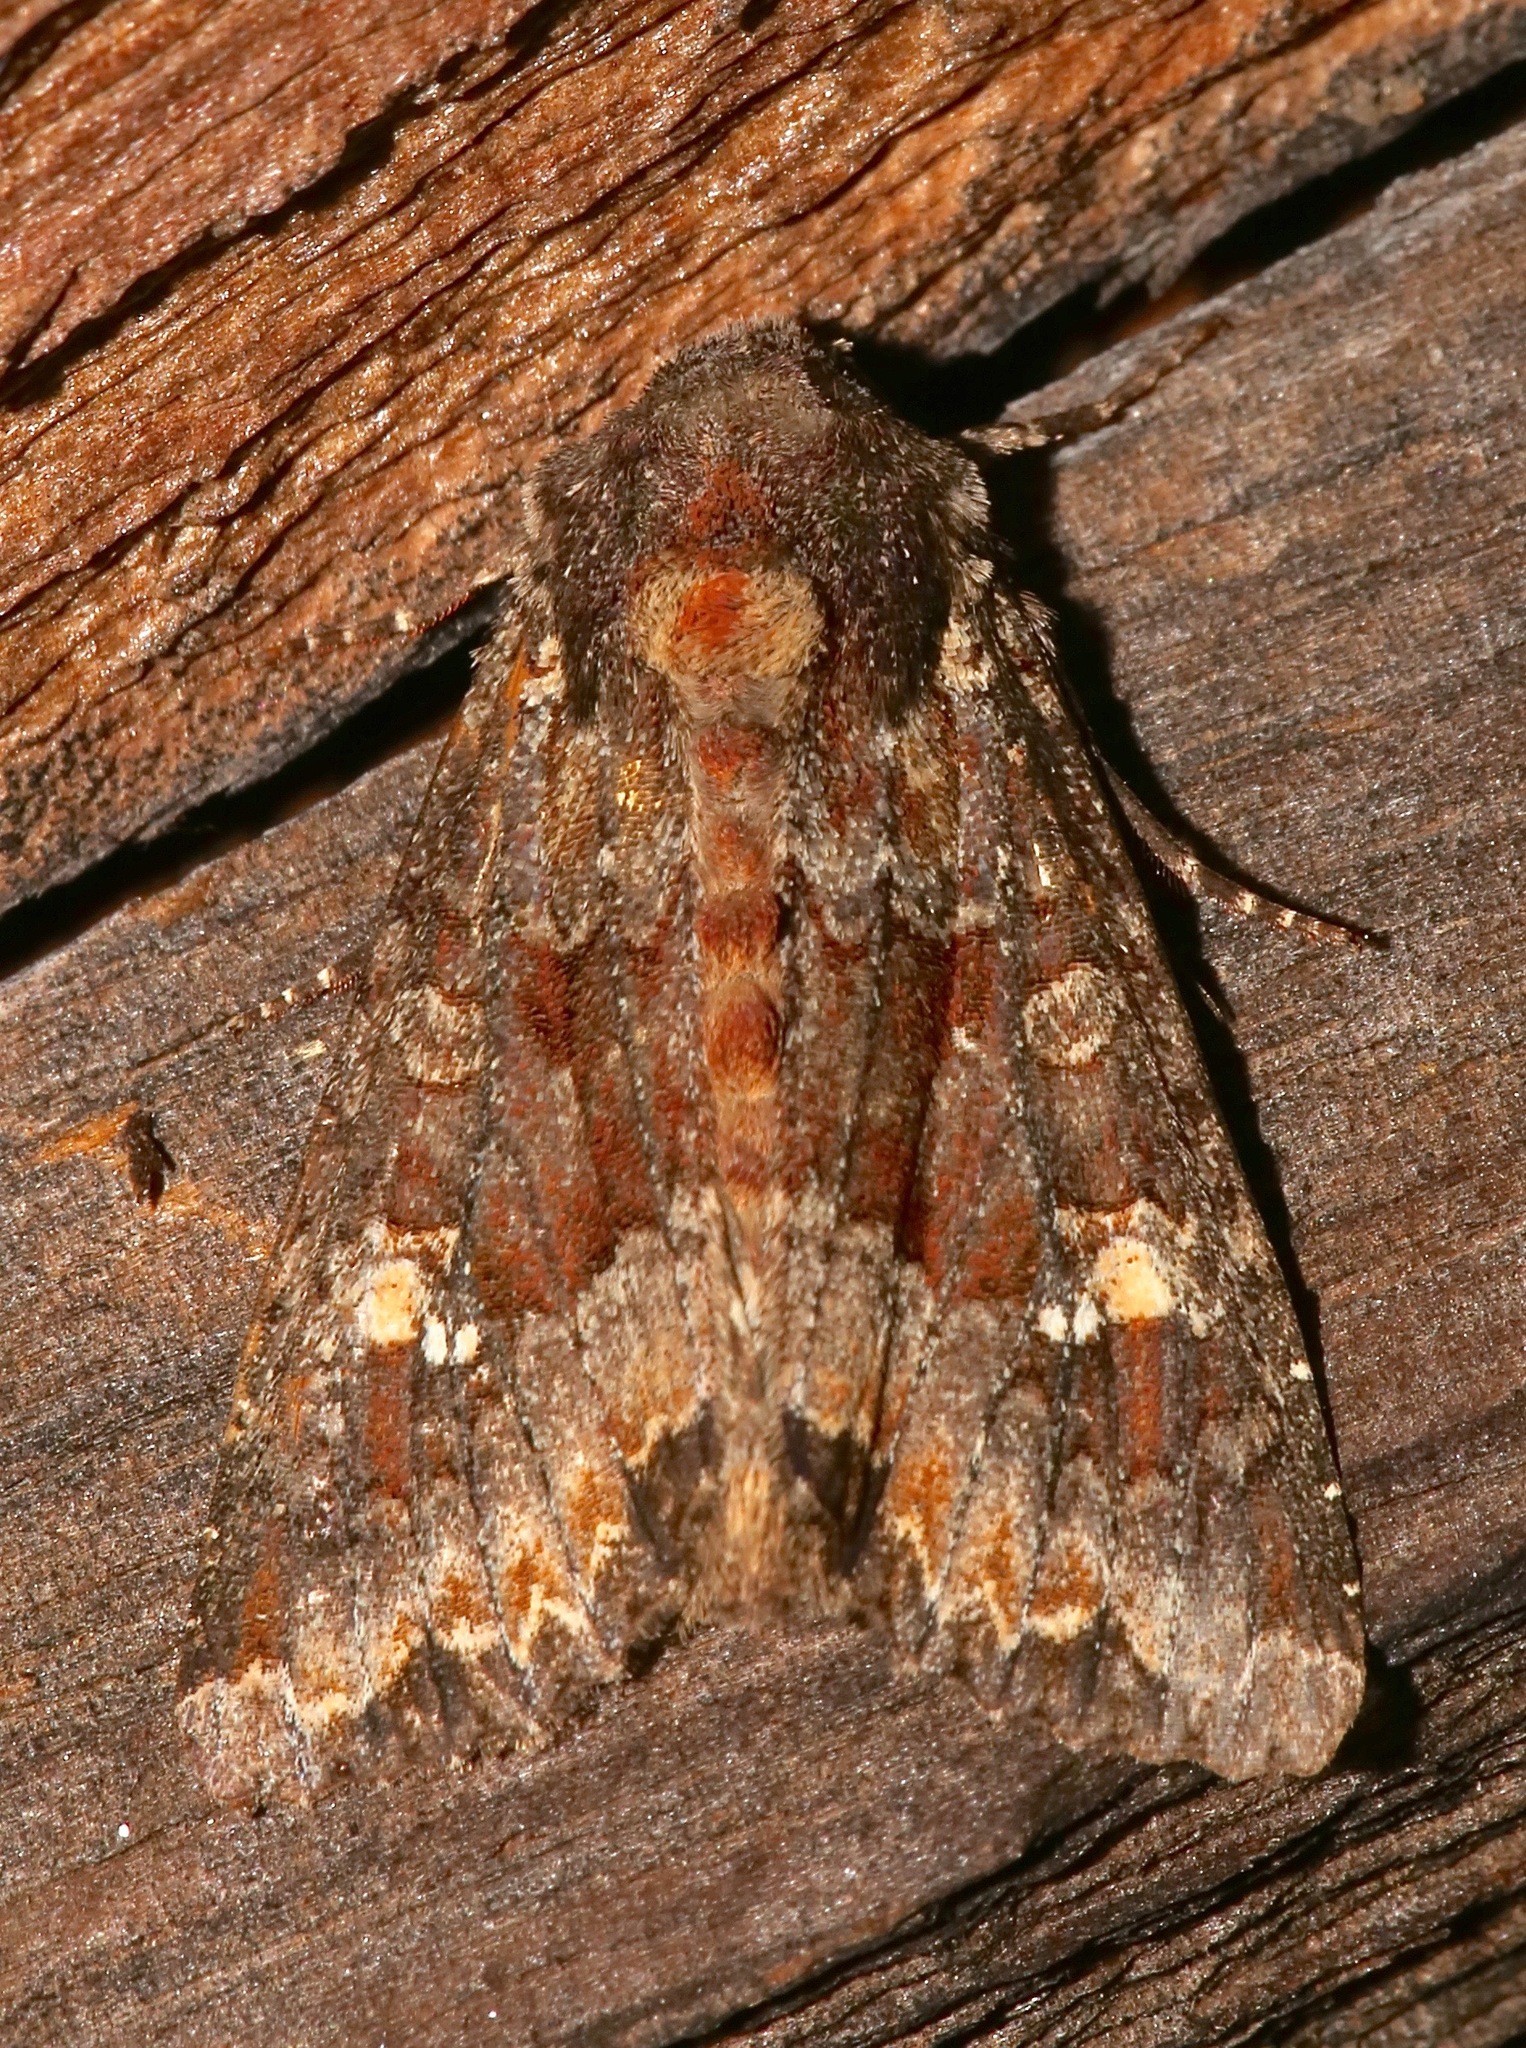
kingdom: Animalia
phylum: Arthropoda
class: Insecta
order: Lepidoptera
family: Noctuidae
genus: Apamea
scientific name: Apamea amputatrix
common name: Yellow-headed cutworm moth
